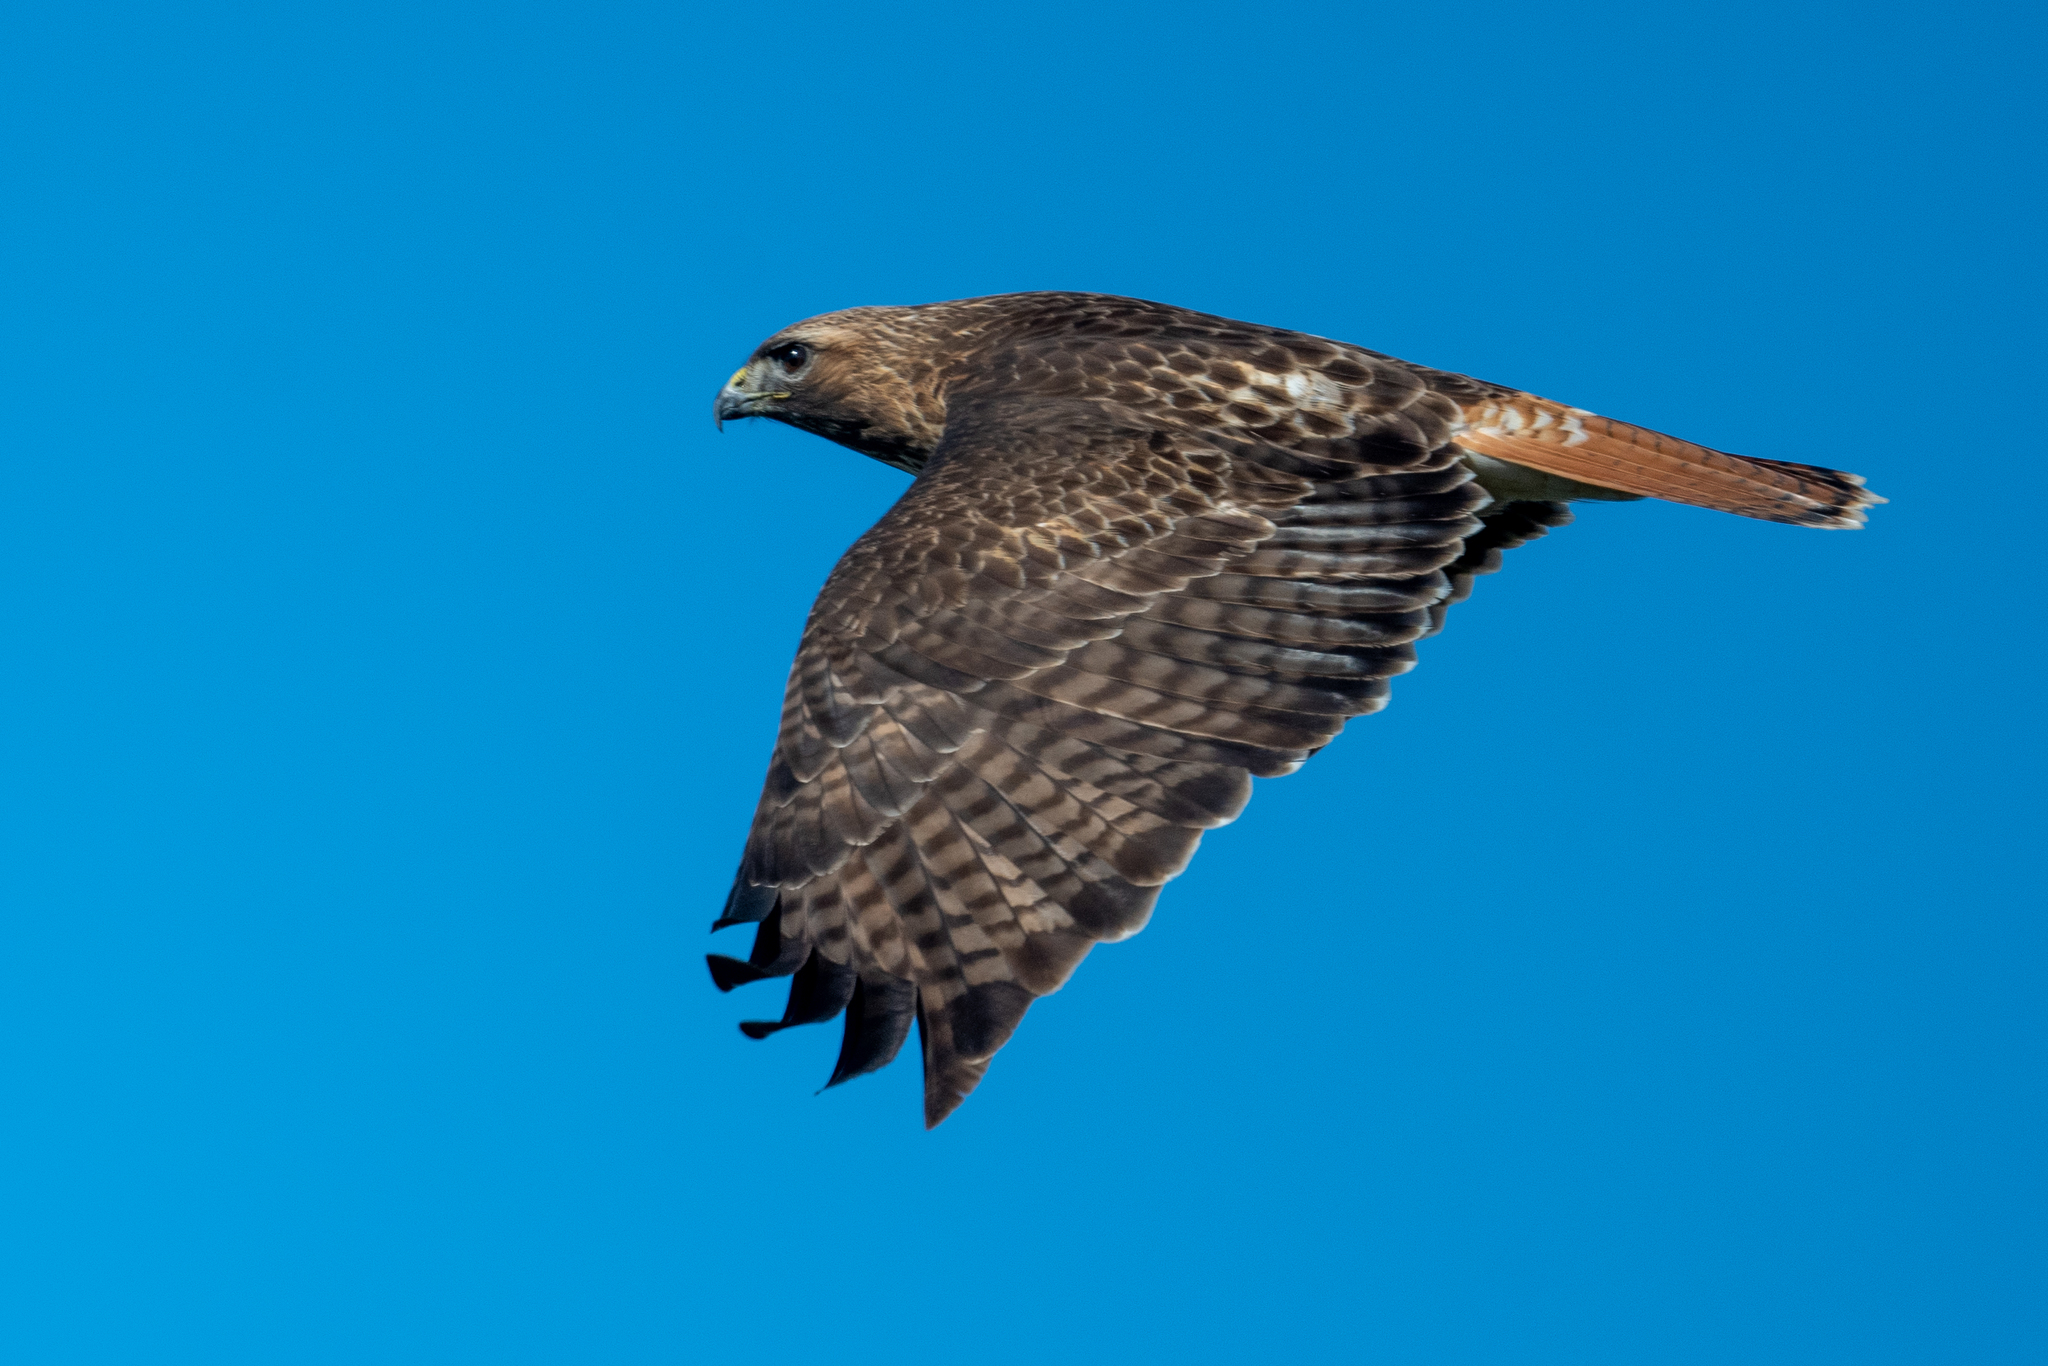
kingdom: Animalia
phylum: Chordata
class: Aves
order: Accipitriformes
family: Accipitridae
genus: Buteo
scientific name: Buteo jamaicensis
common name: Red-tailed hawk
